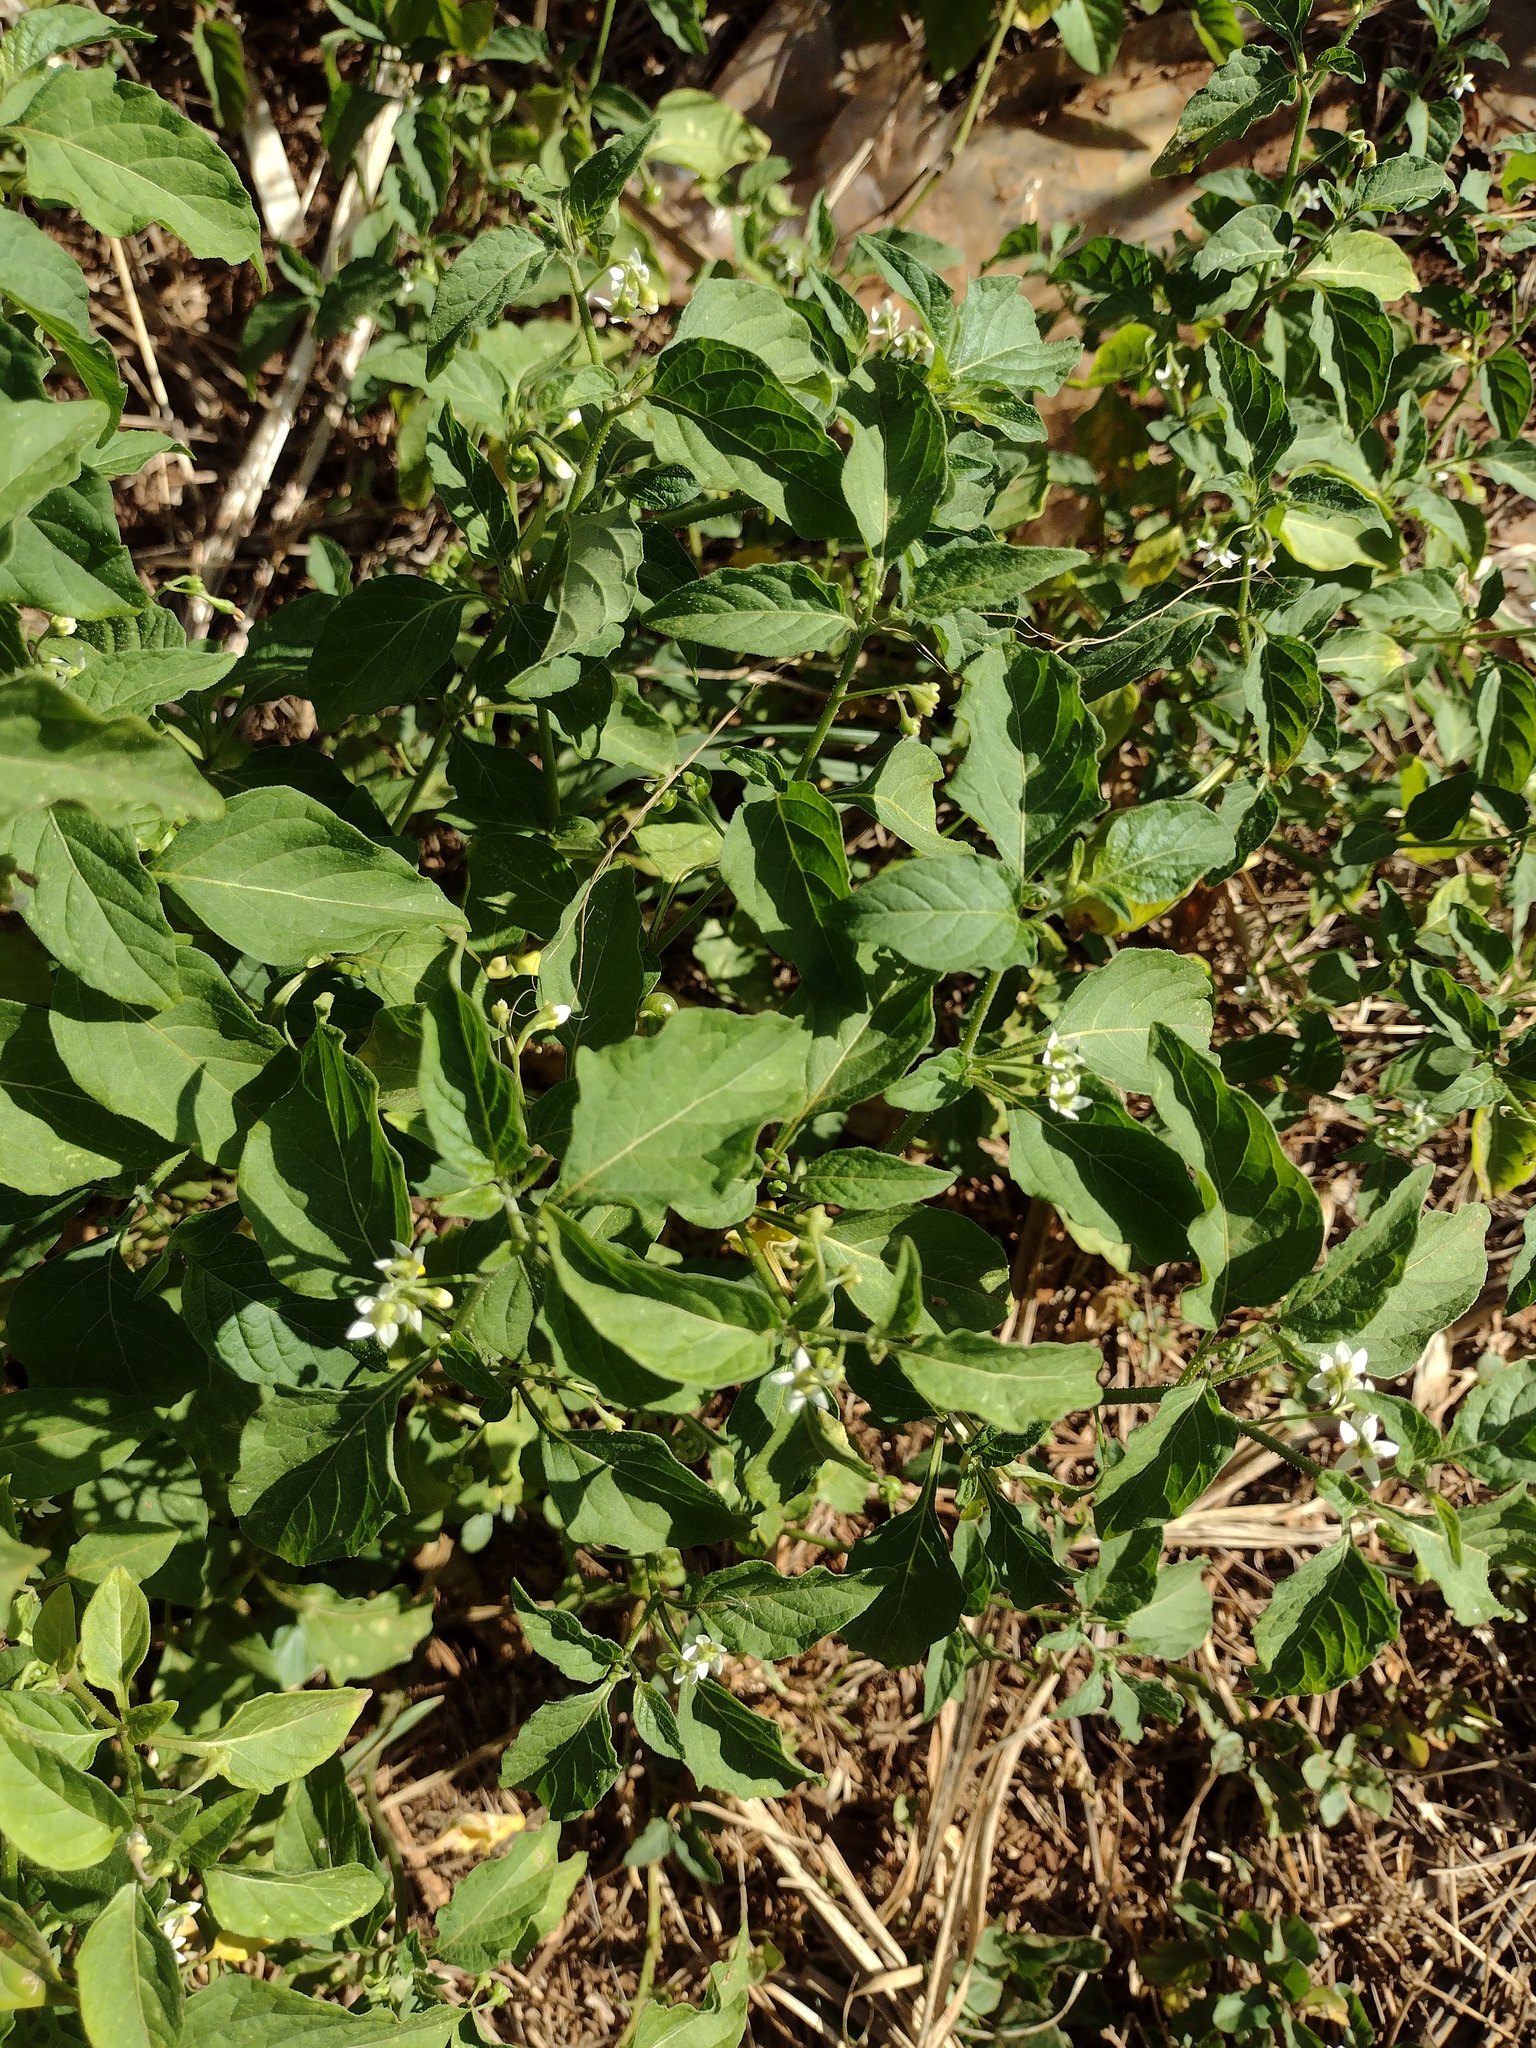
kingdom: Plantae
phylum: Tracheophyta
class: Magnoliopsida
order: Solanales
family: Solanaceae
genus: Solanum
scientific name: Solanum americanum
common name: American black nightshade
